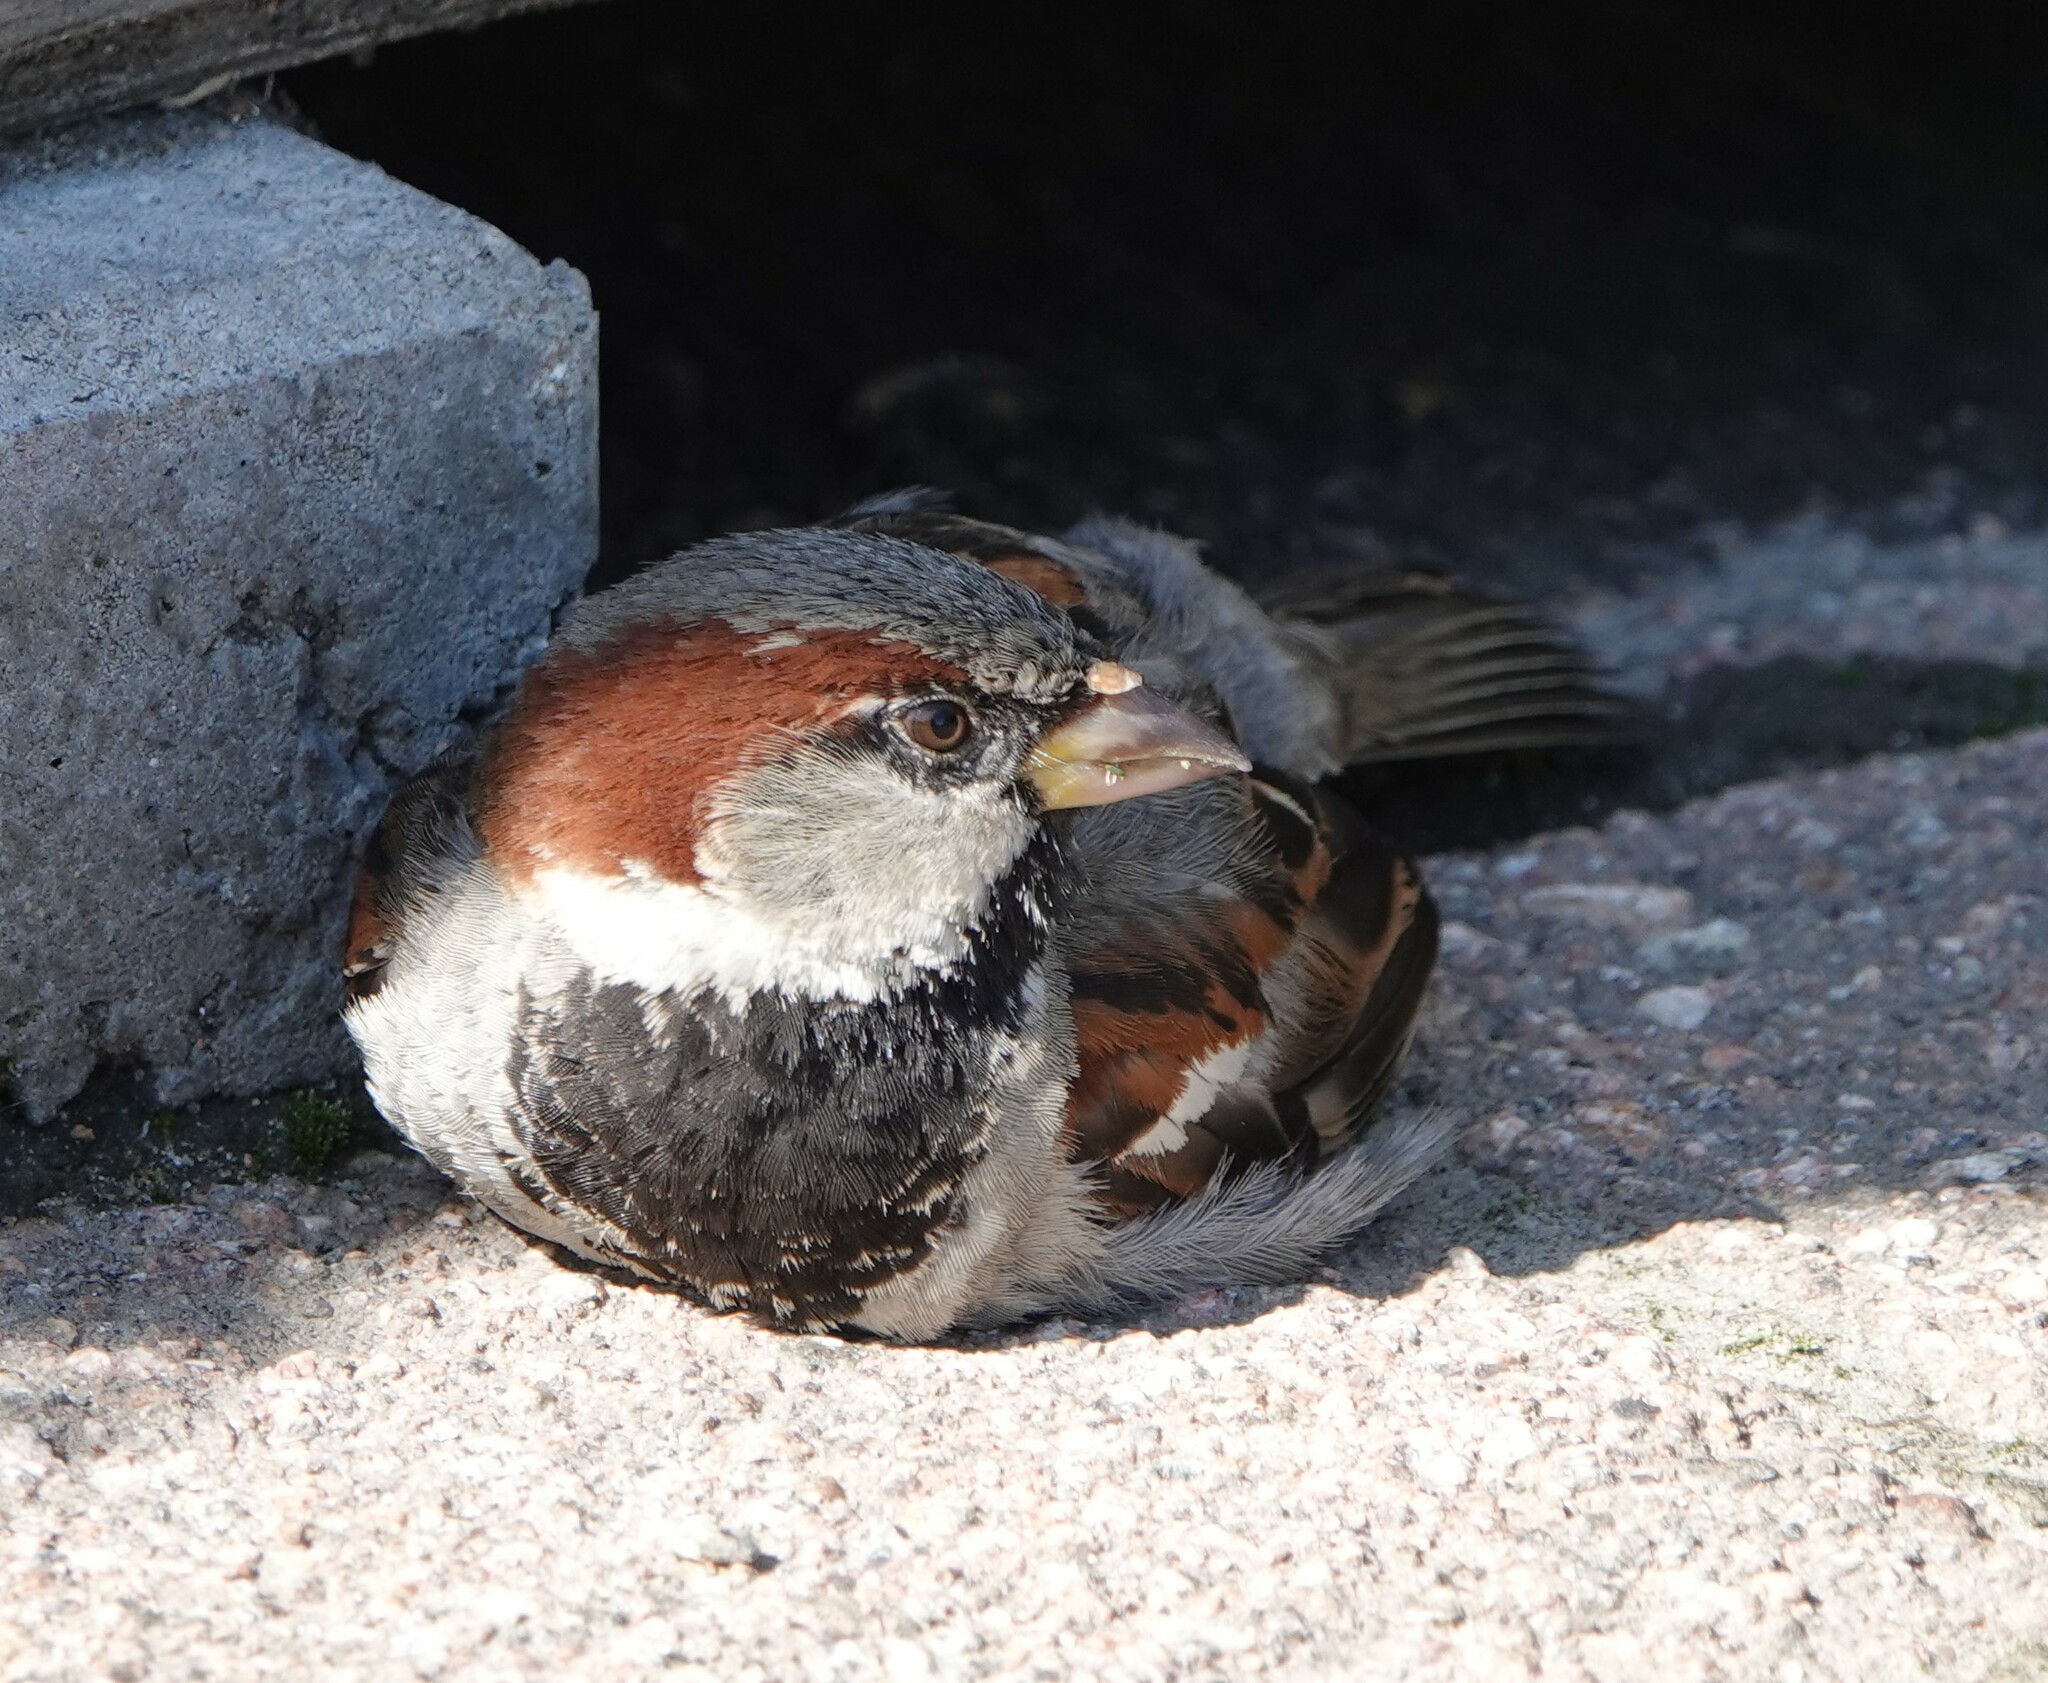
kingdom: Animalia
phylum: Chordata
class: Aves
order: Passeriformes
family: Passeridae
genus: Passer
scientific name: Passer domesticus
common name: House sparrow
